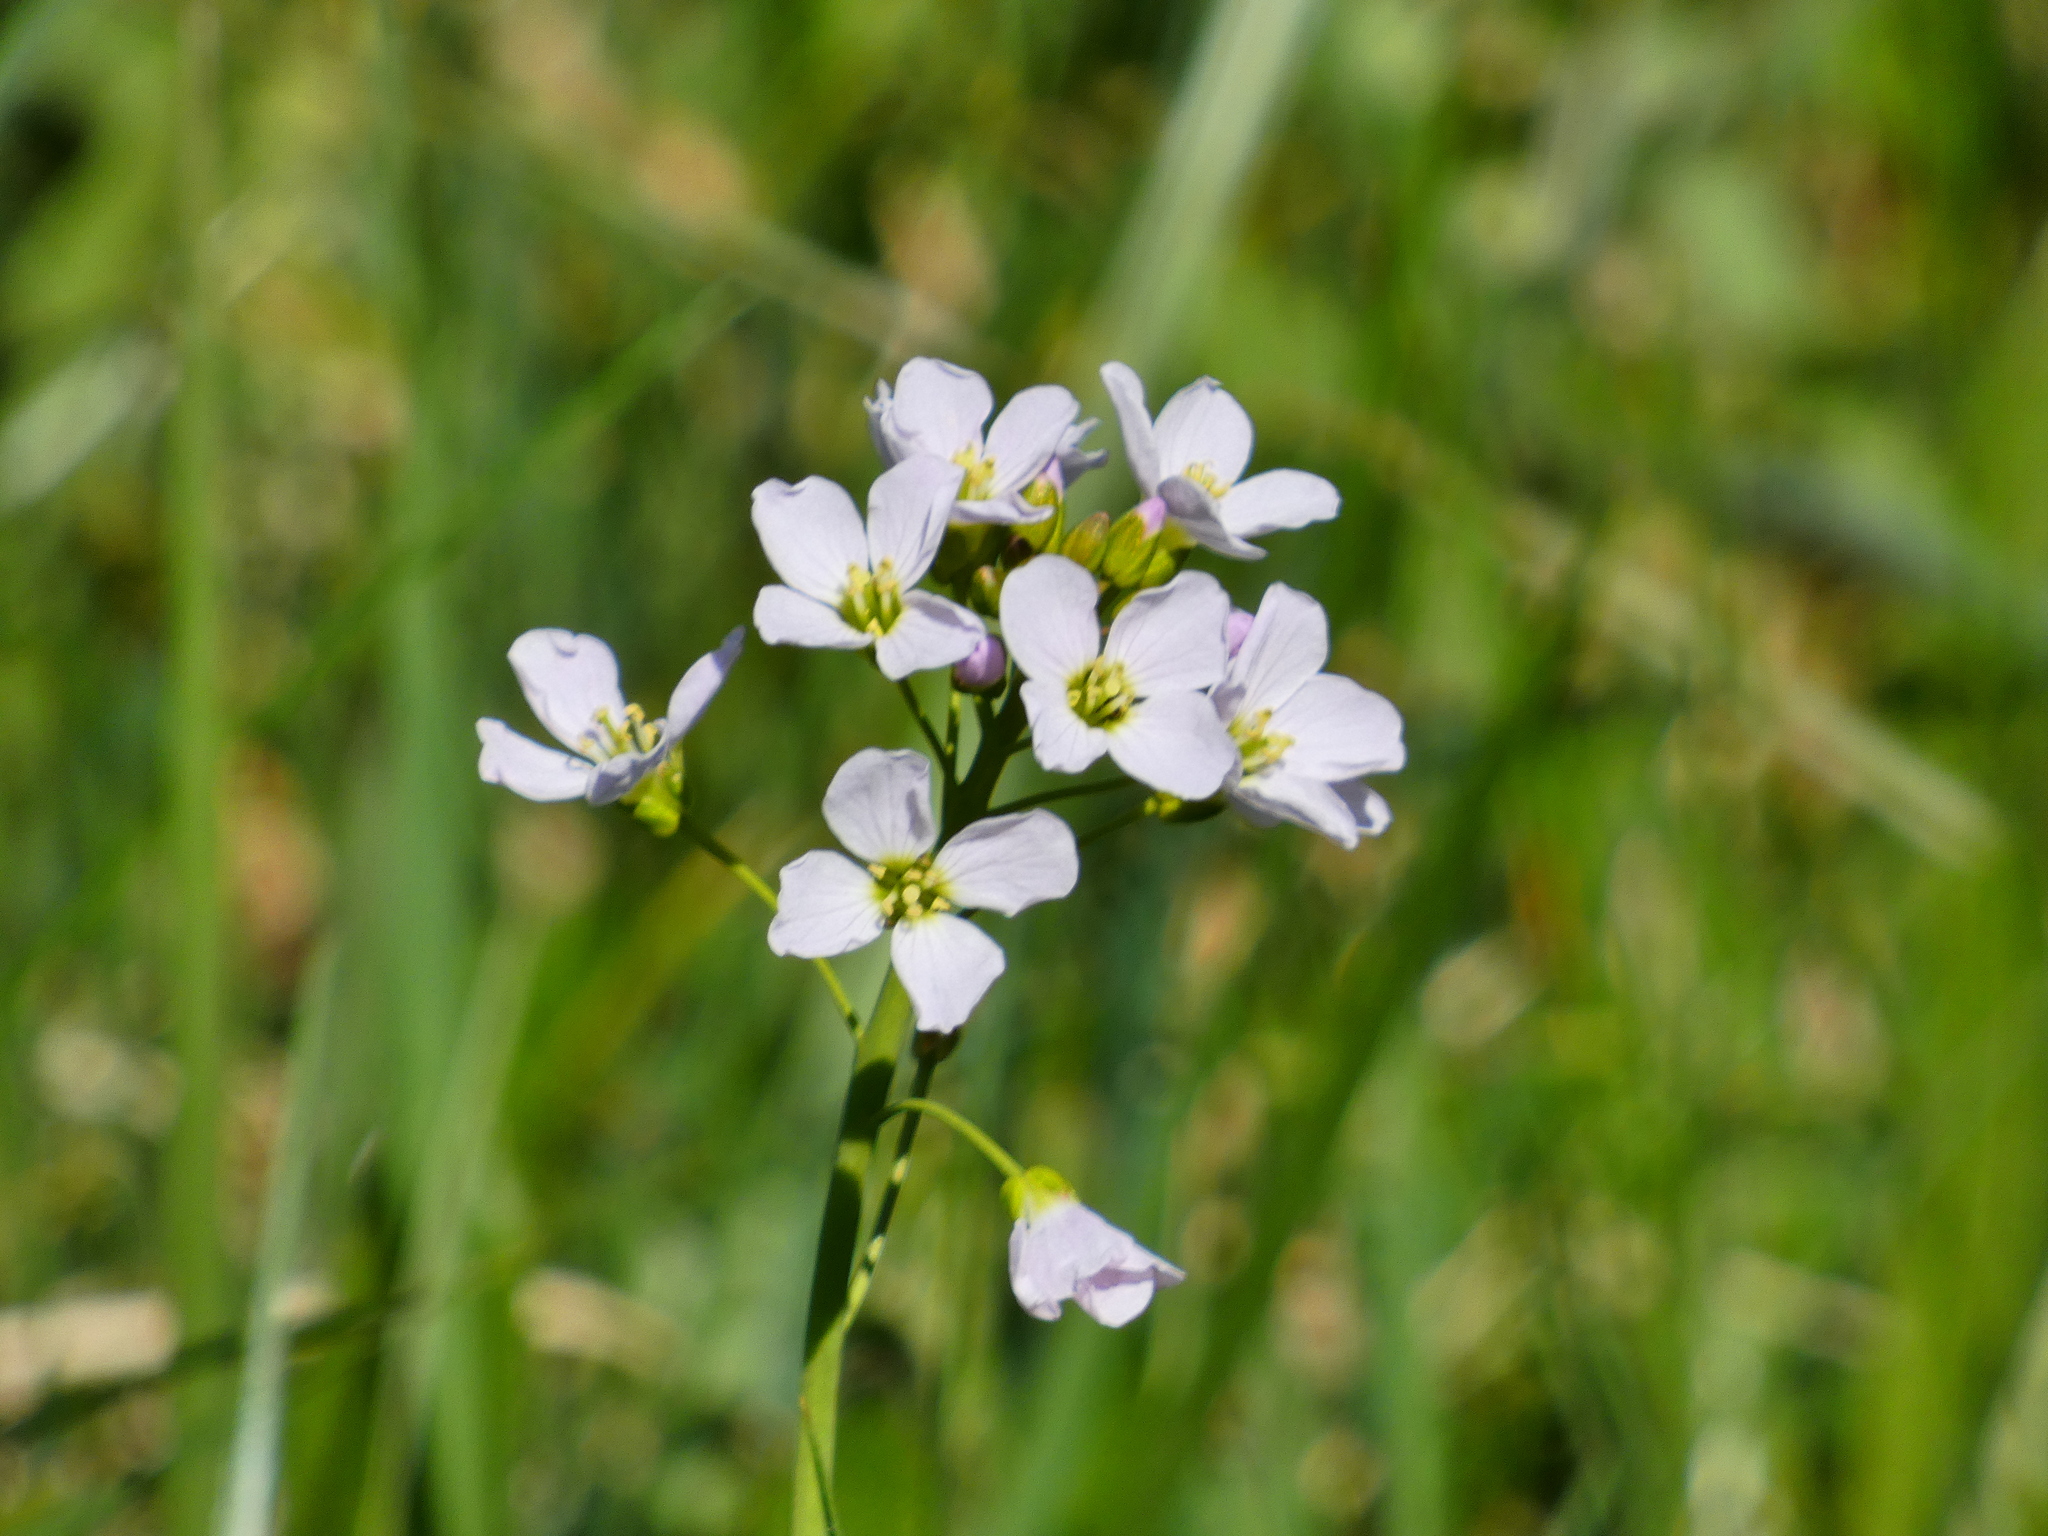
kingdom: Plantae
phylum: Tracheophyta
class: Magnoliopsida
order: Brassicales
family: Brassicaceae
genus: Cardamine
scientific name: Cardamine pratensis
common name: Cuckoo flower
